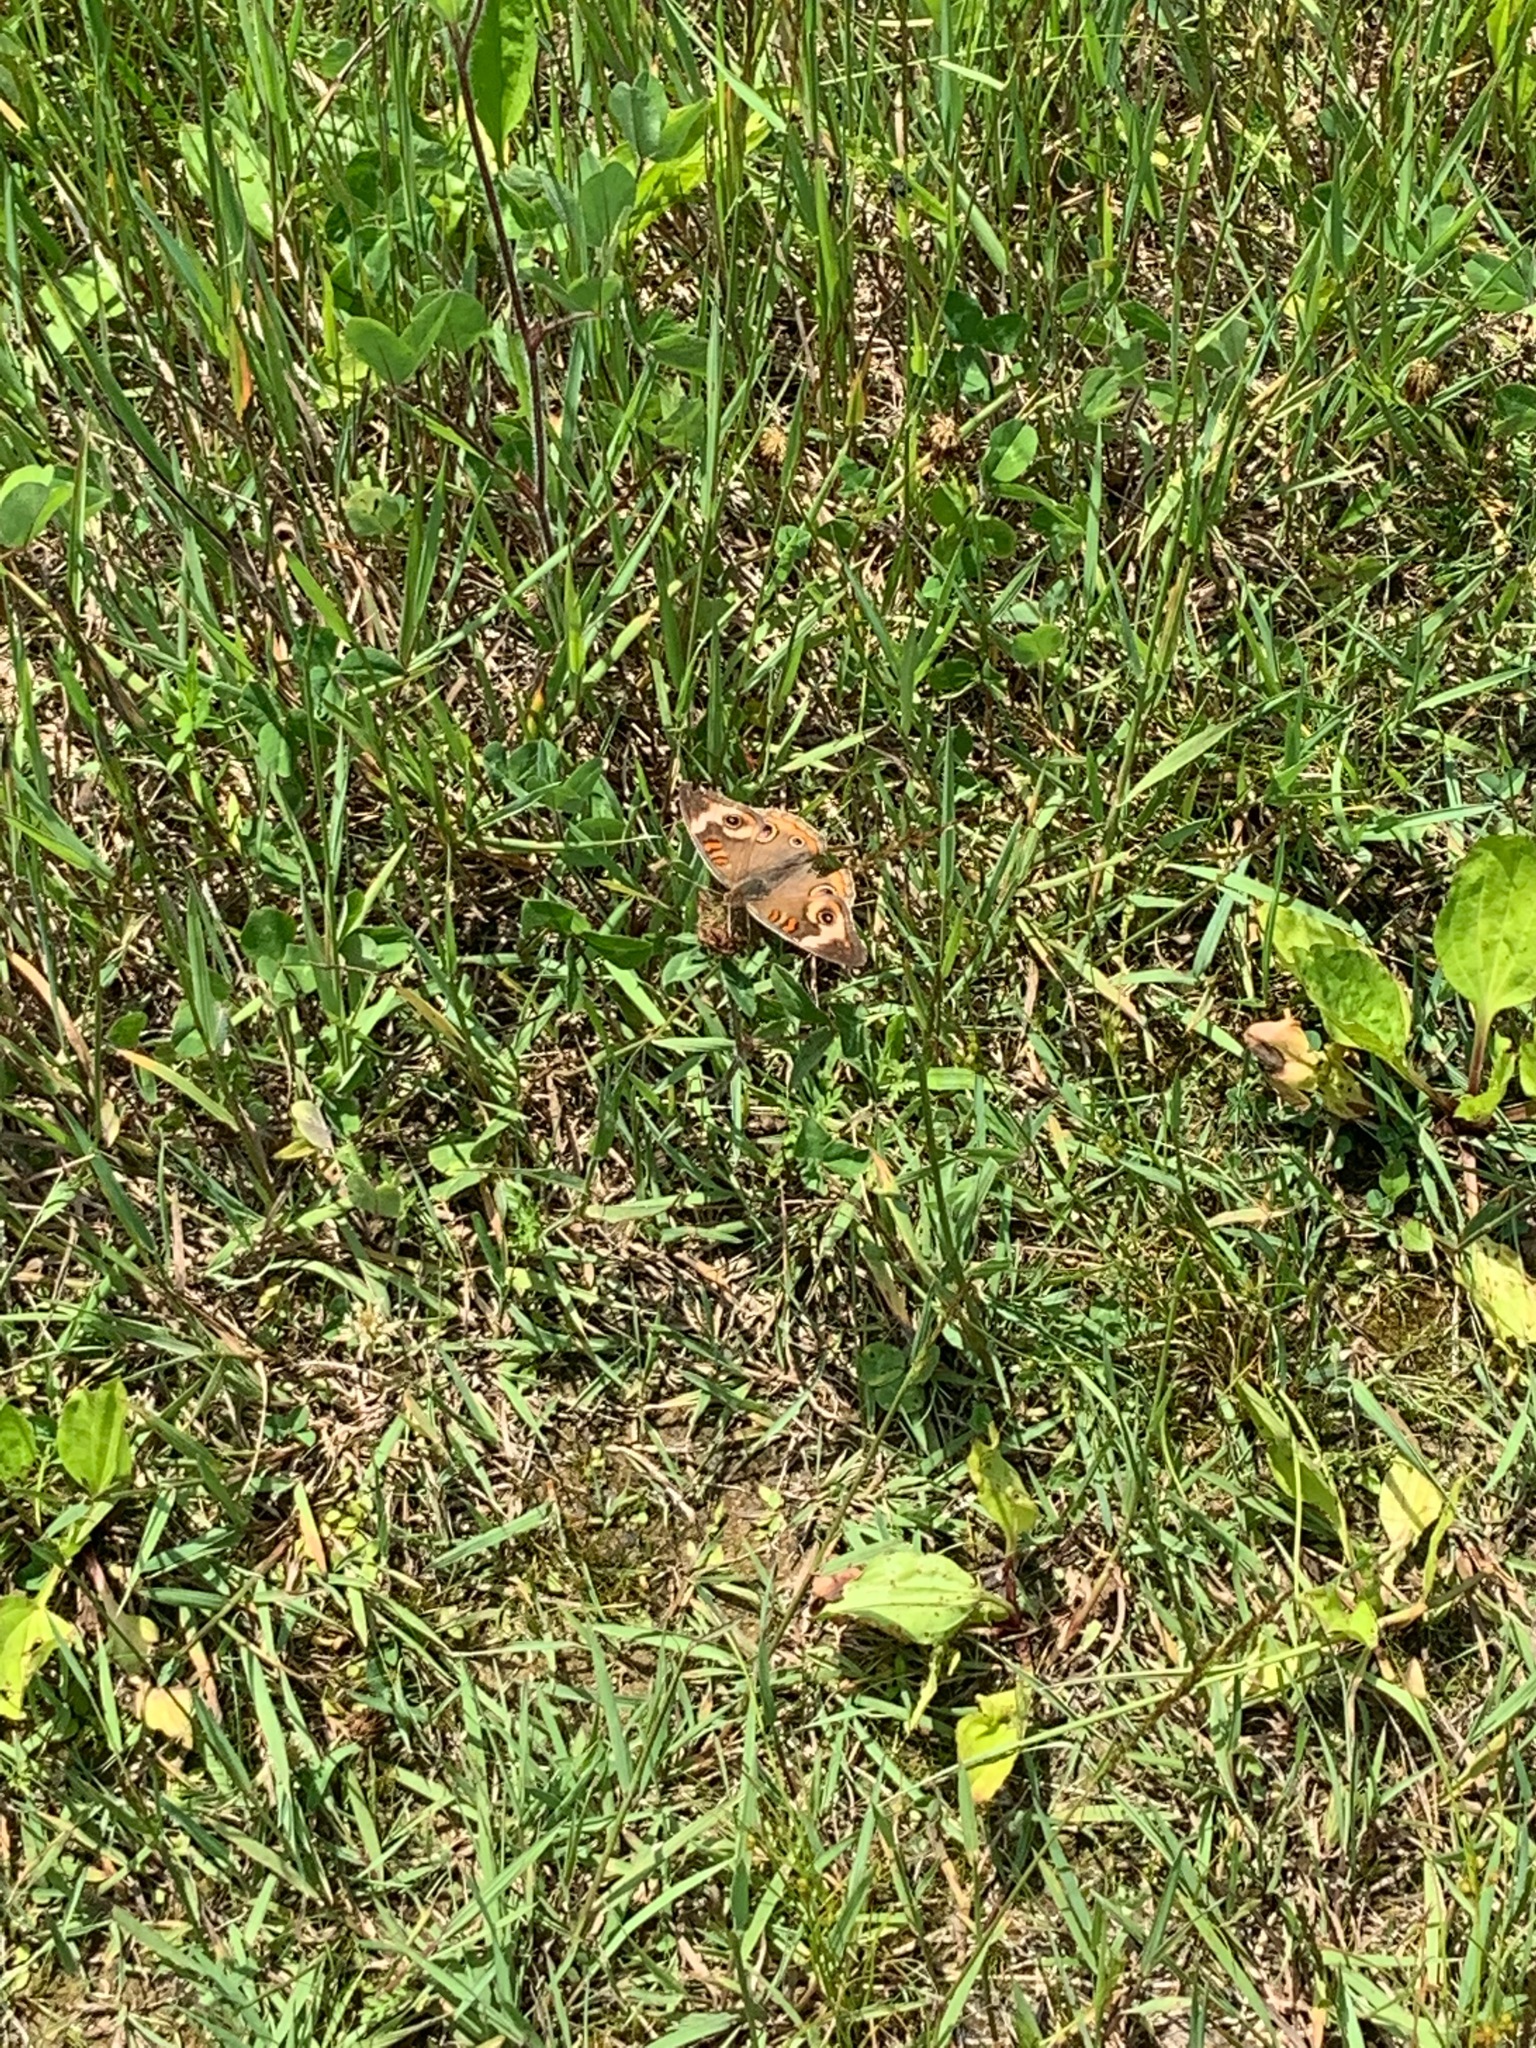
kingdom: Animalia
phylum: Arthropoda
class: Insecta
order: Lepidoptera
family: Nymphalidae
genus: Junonia
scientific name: Junonia coenia
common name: Common buckeye
